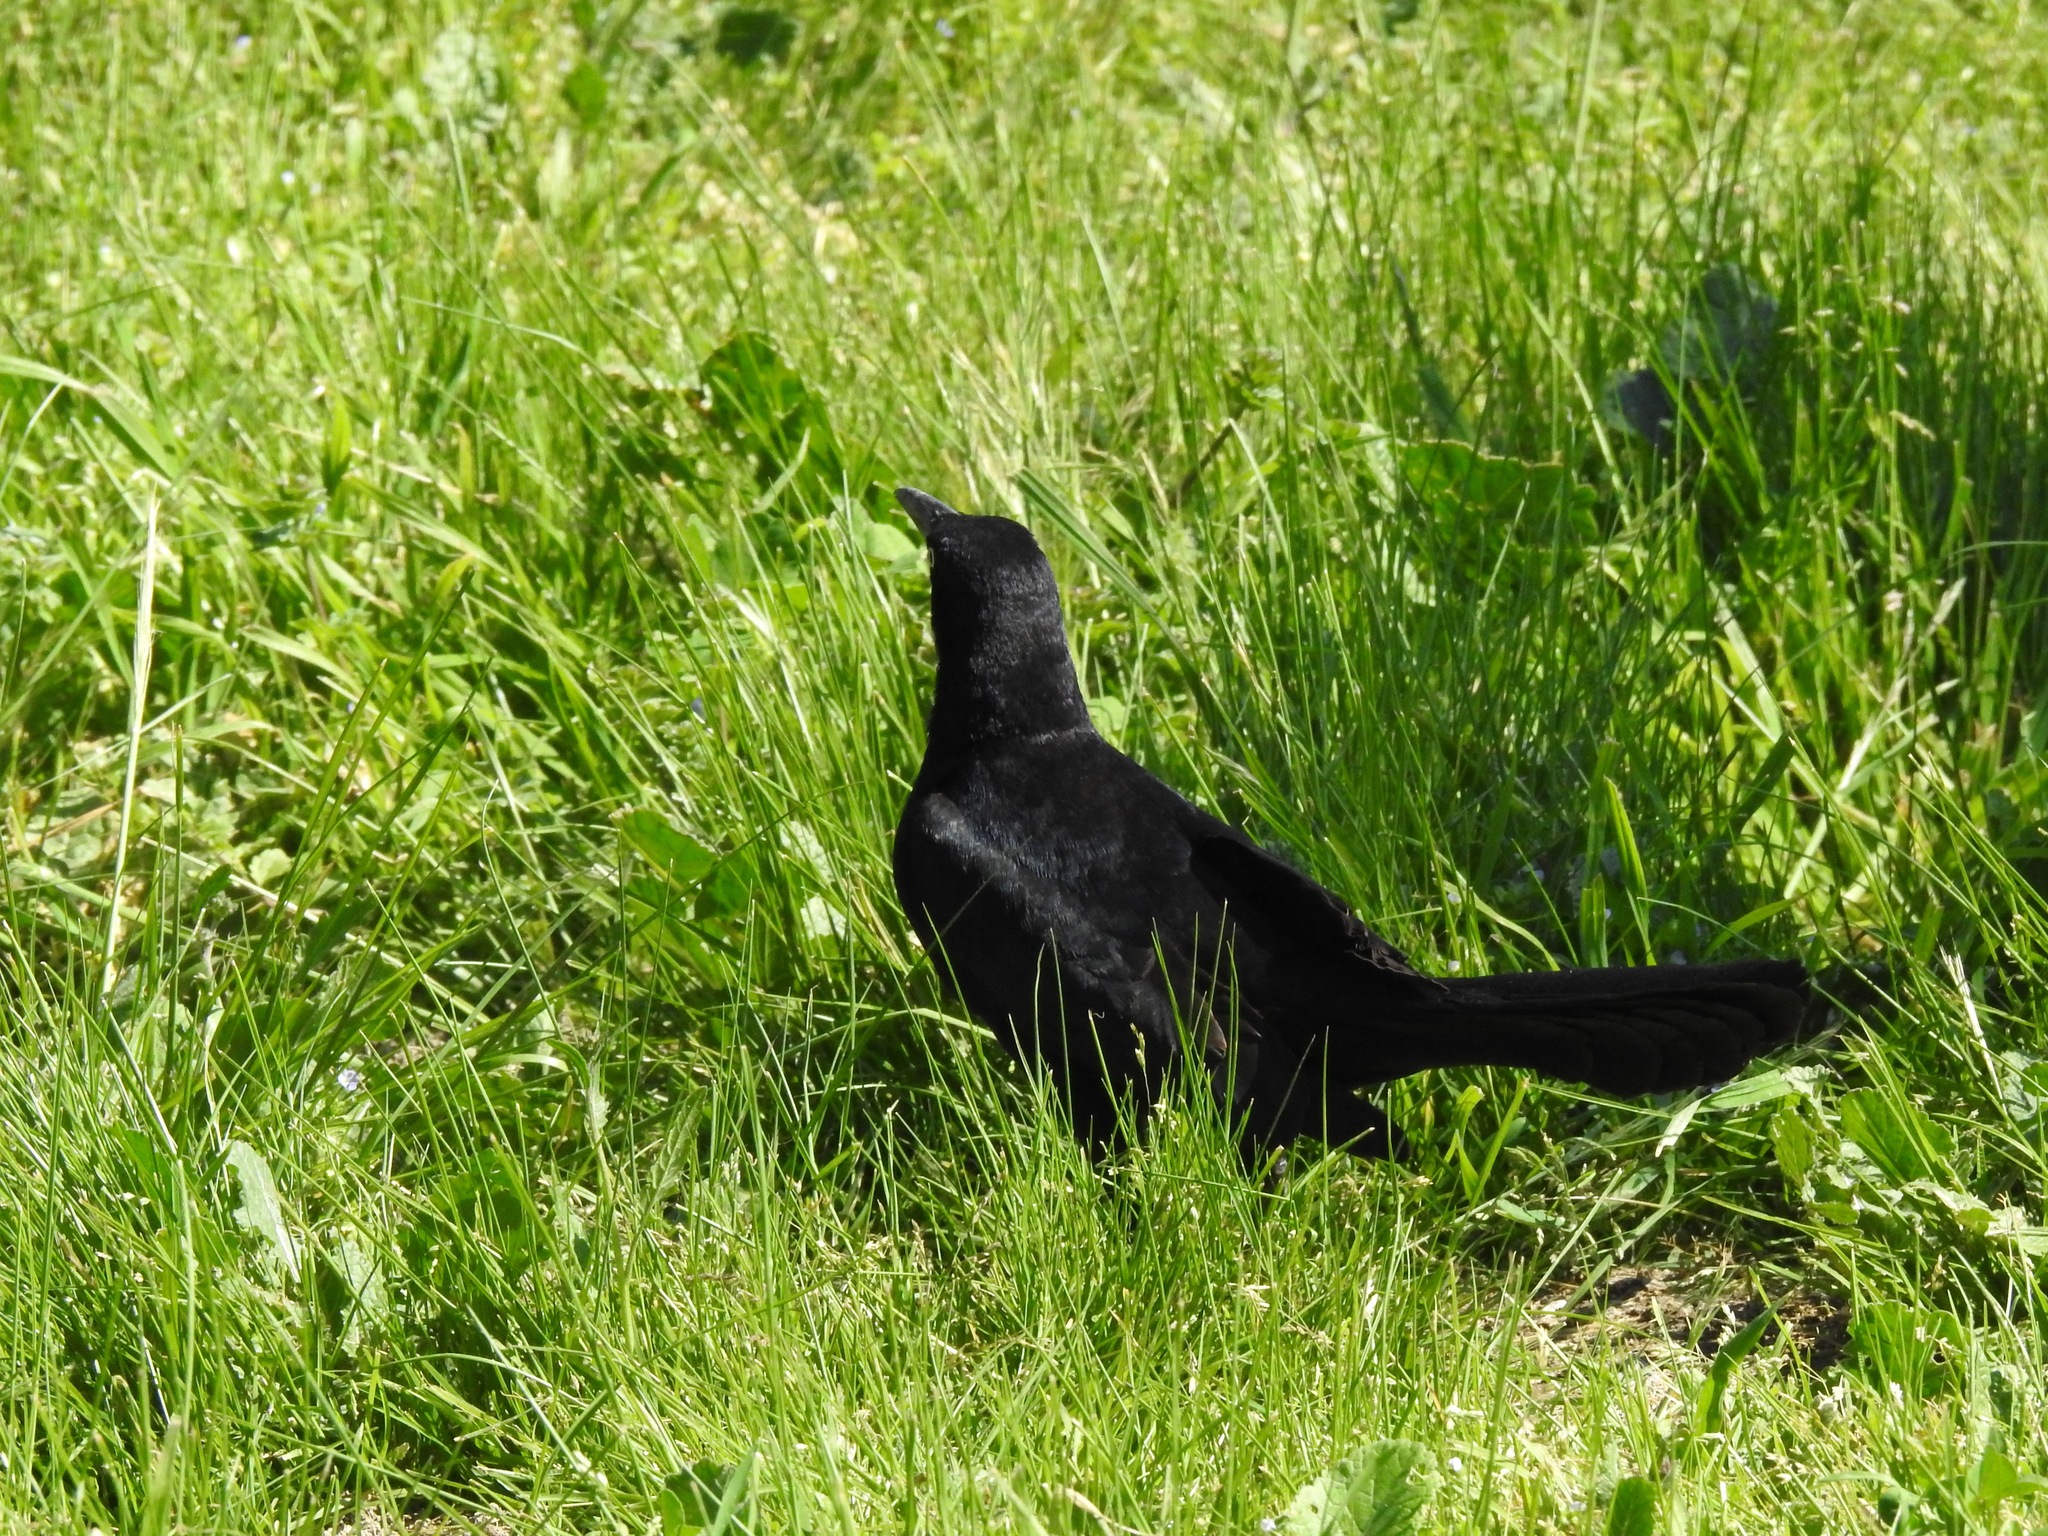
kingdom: Animalia
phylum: Chordata
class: Aves
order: Passeriformes
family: Icteridae
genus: Quiscalus
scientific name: Quiscalus mexicanus
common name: Great-tailed grackle
